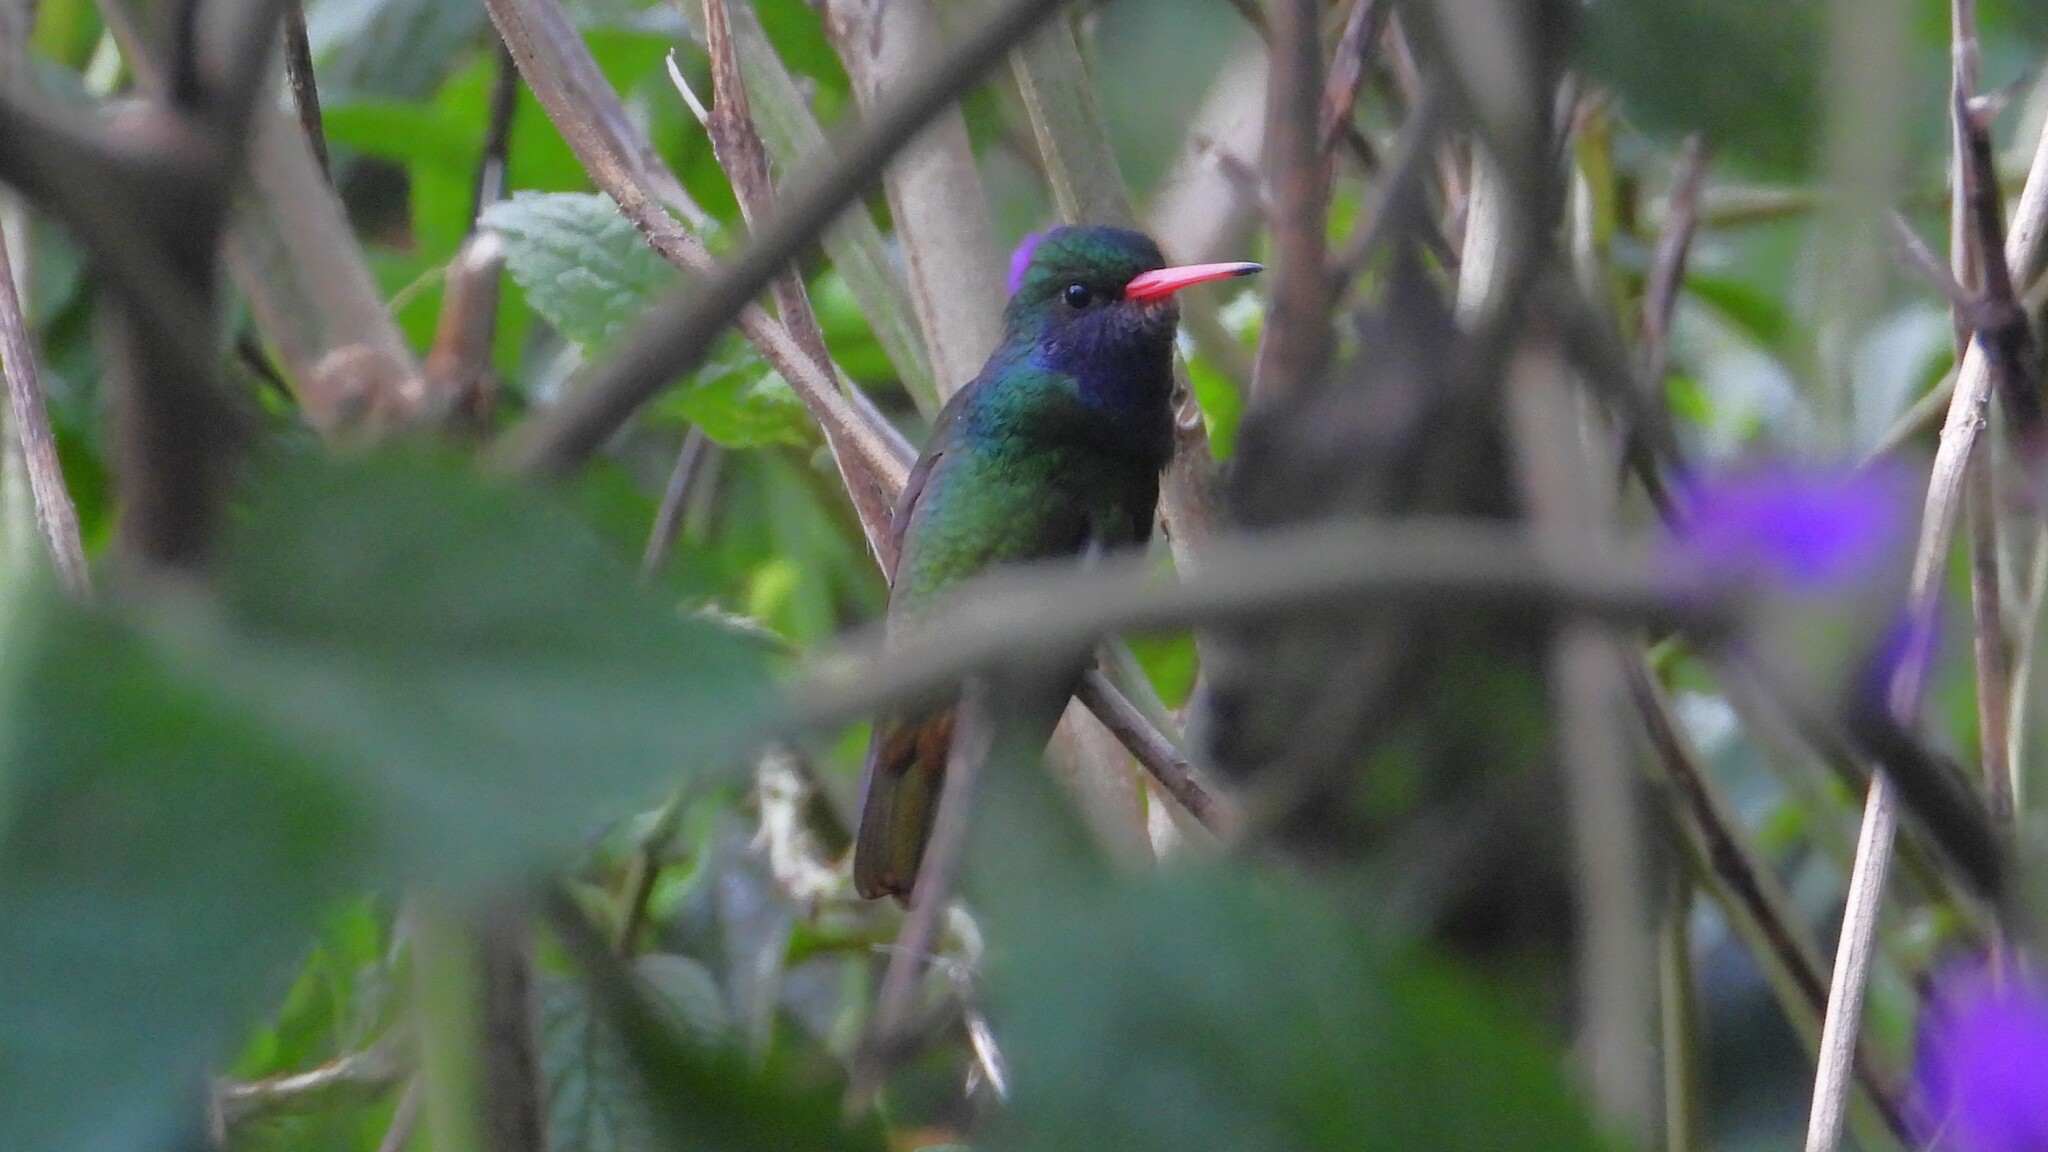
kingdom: Animalia
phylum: Chordata
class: Aves
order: Apodiformes
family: Trochilidae
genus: Chlorestes
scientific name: Chlorestes eliciae
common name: Blue-throated sapphire
